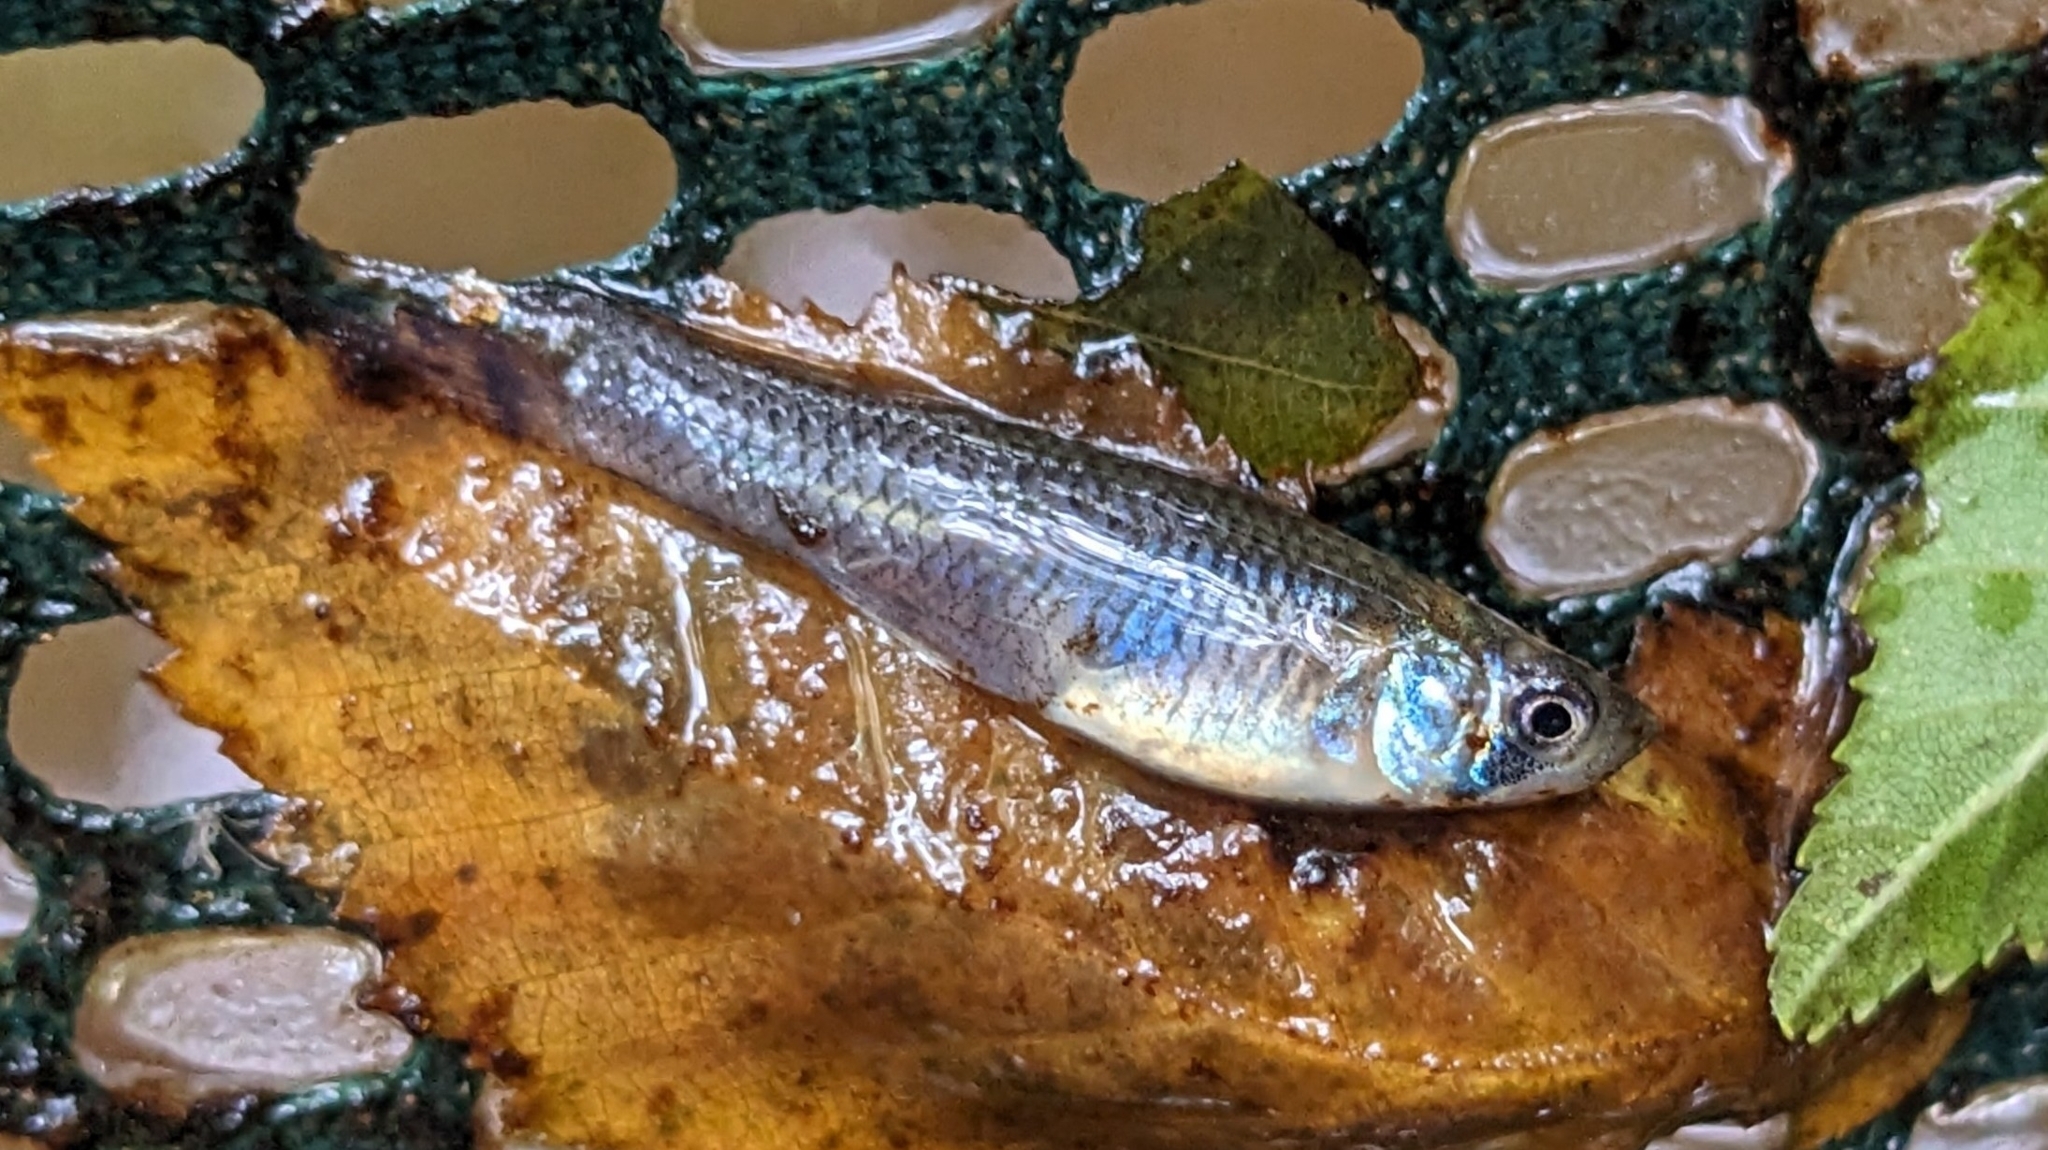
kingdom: Animalia
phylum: Chordata
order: Cyprinodontiformes
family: Poeciliidae
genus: Gambusia
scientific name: Gambusia affinis
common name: Mosquitofish
